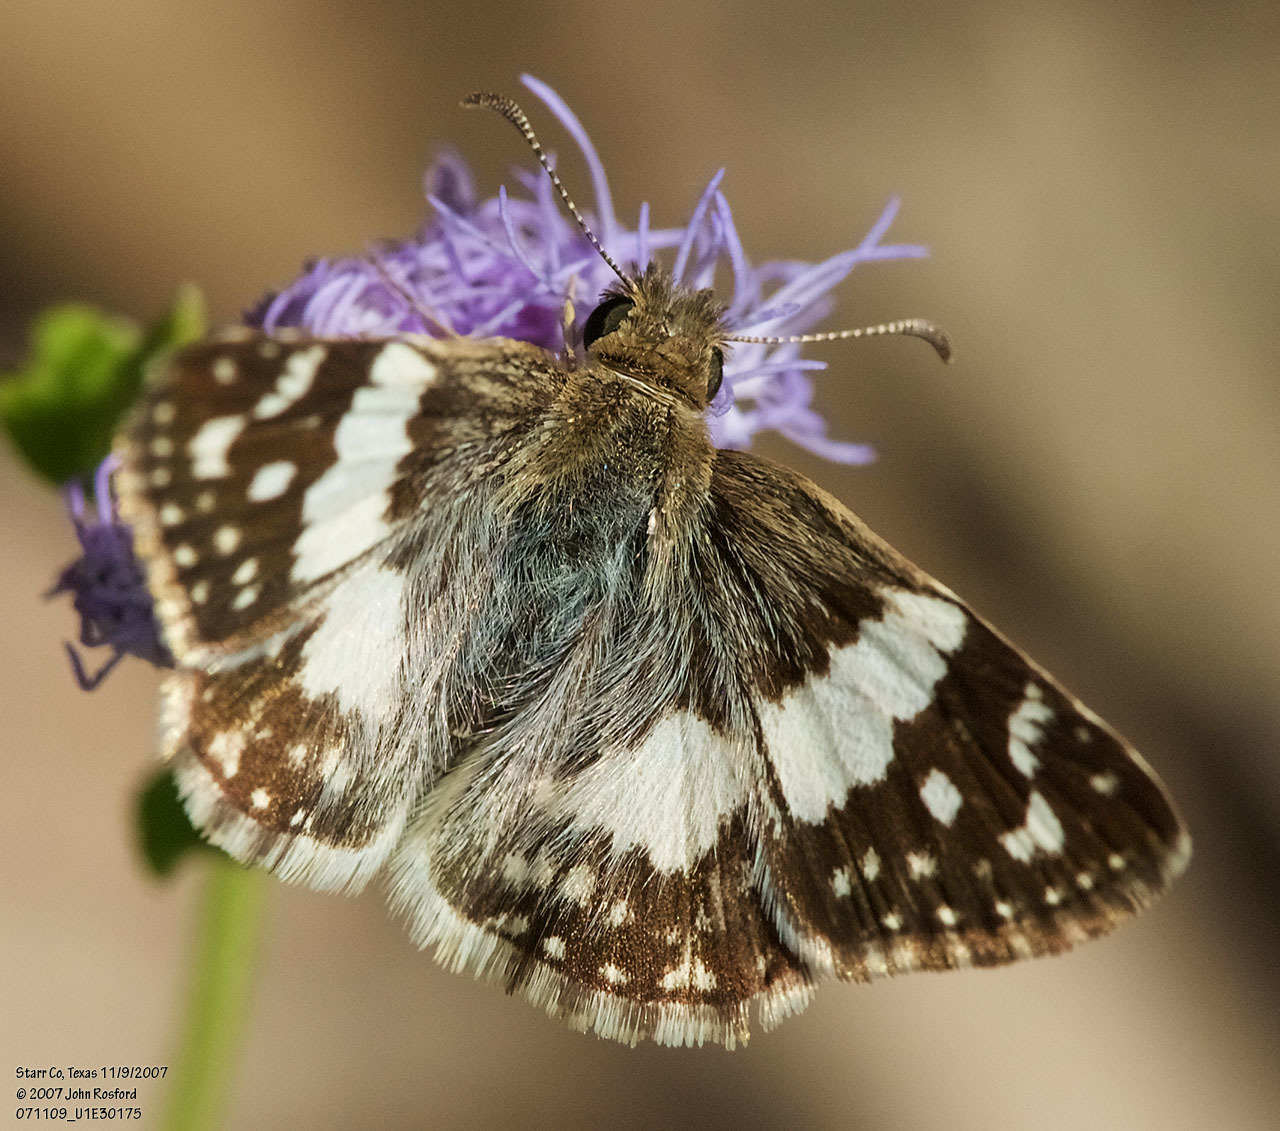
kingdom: Animalia
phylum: Arthropoda
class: Insecta
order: Lepidoptera
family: Hesperiidae
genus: Heliopyrgus
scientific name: Heliopyrgus domicella
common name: Erichson's white skipper
